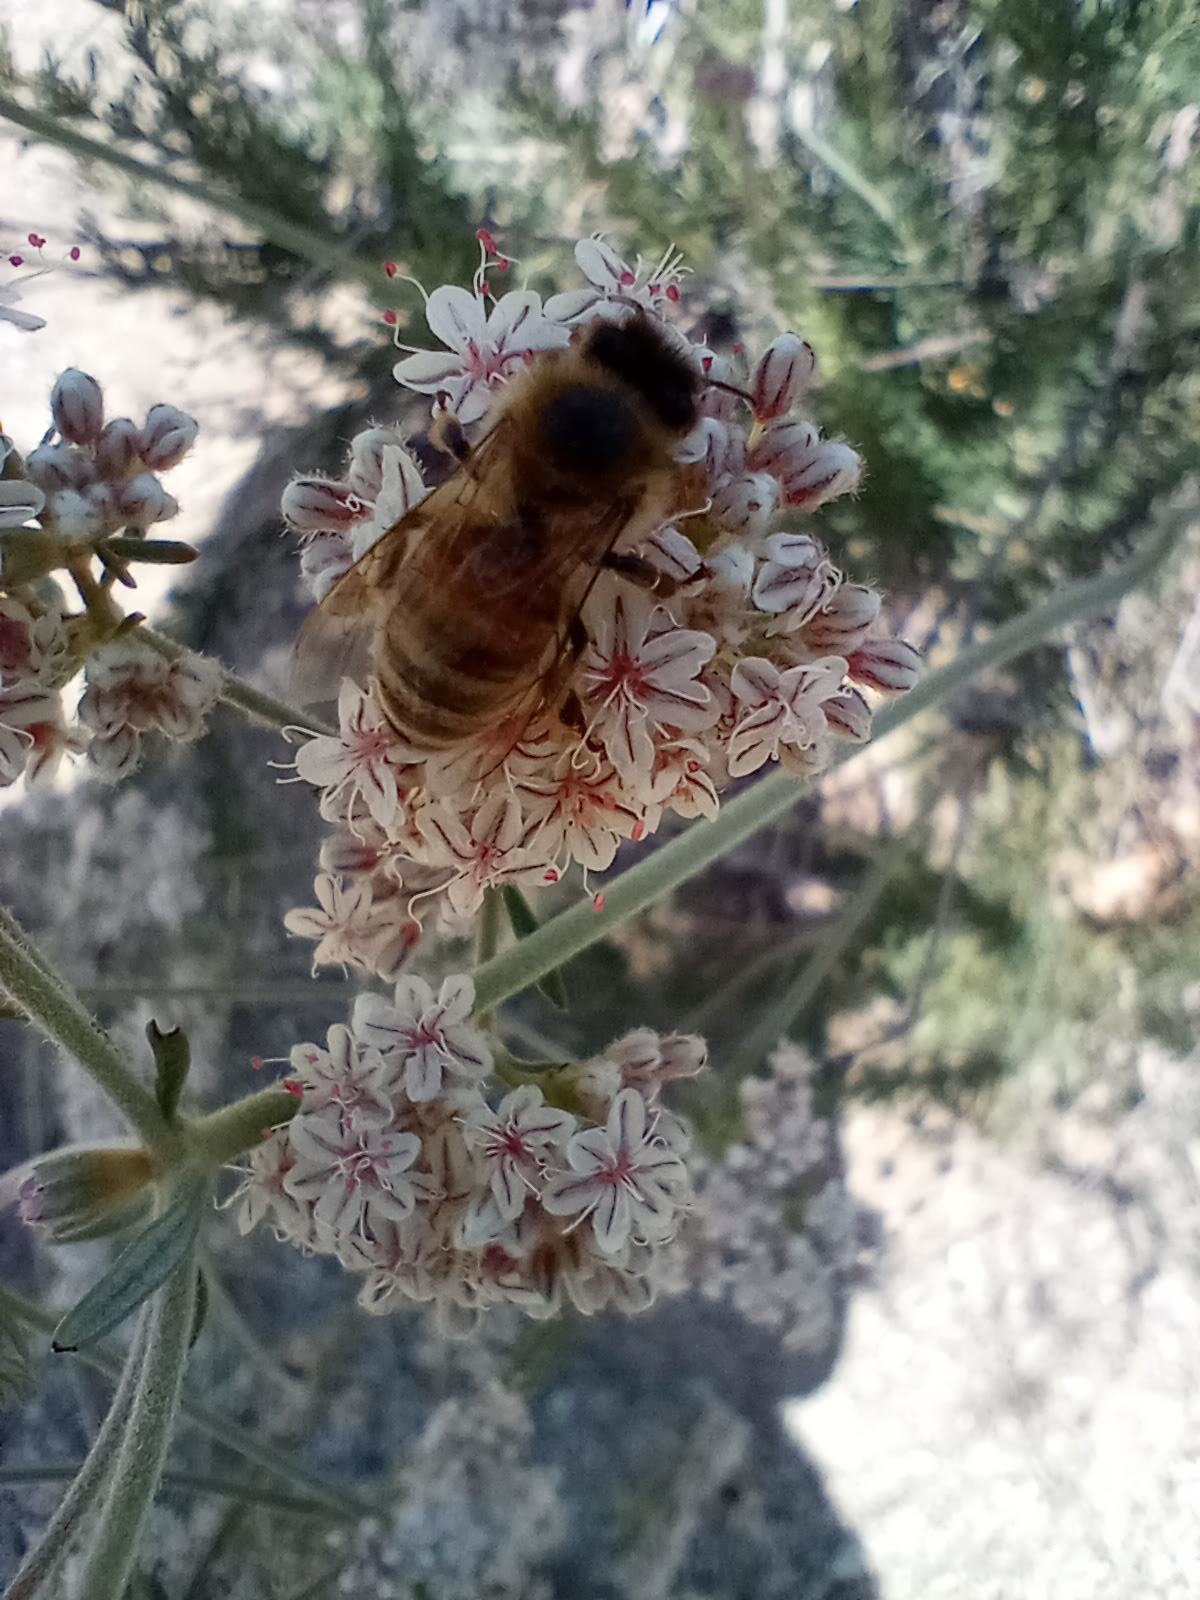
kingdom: Animalia
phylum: Arthropoda
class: Insecta
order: Hymenoptera
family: Apidae
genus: Apis
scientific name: Apis mellifera
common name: Honey bee
